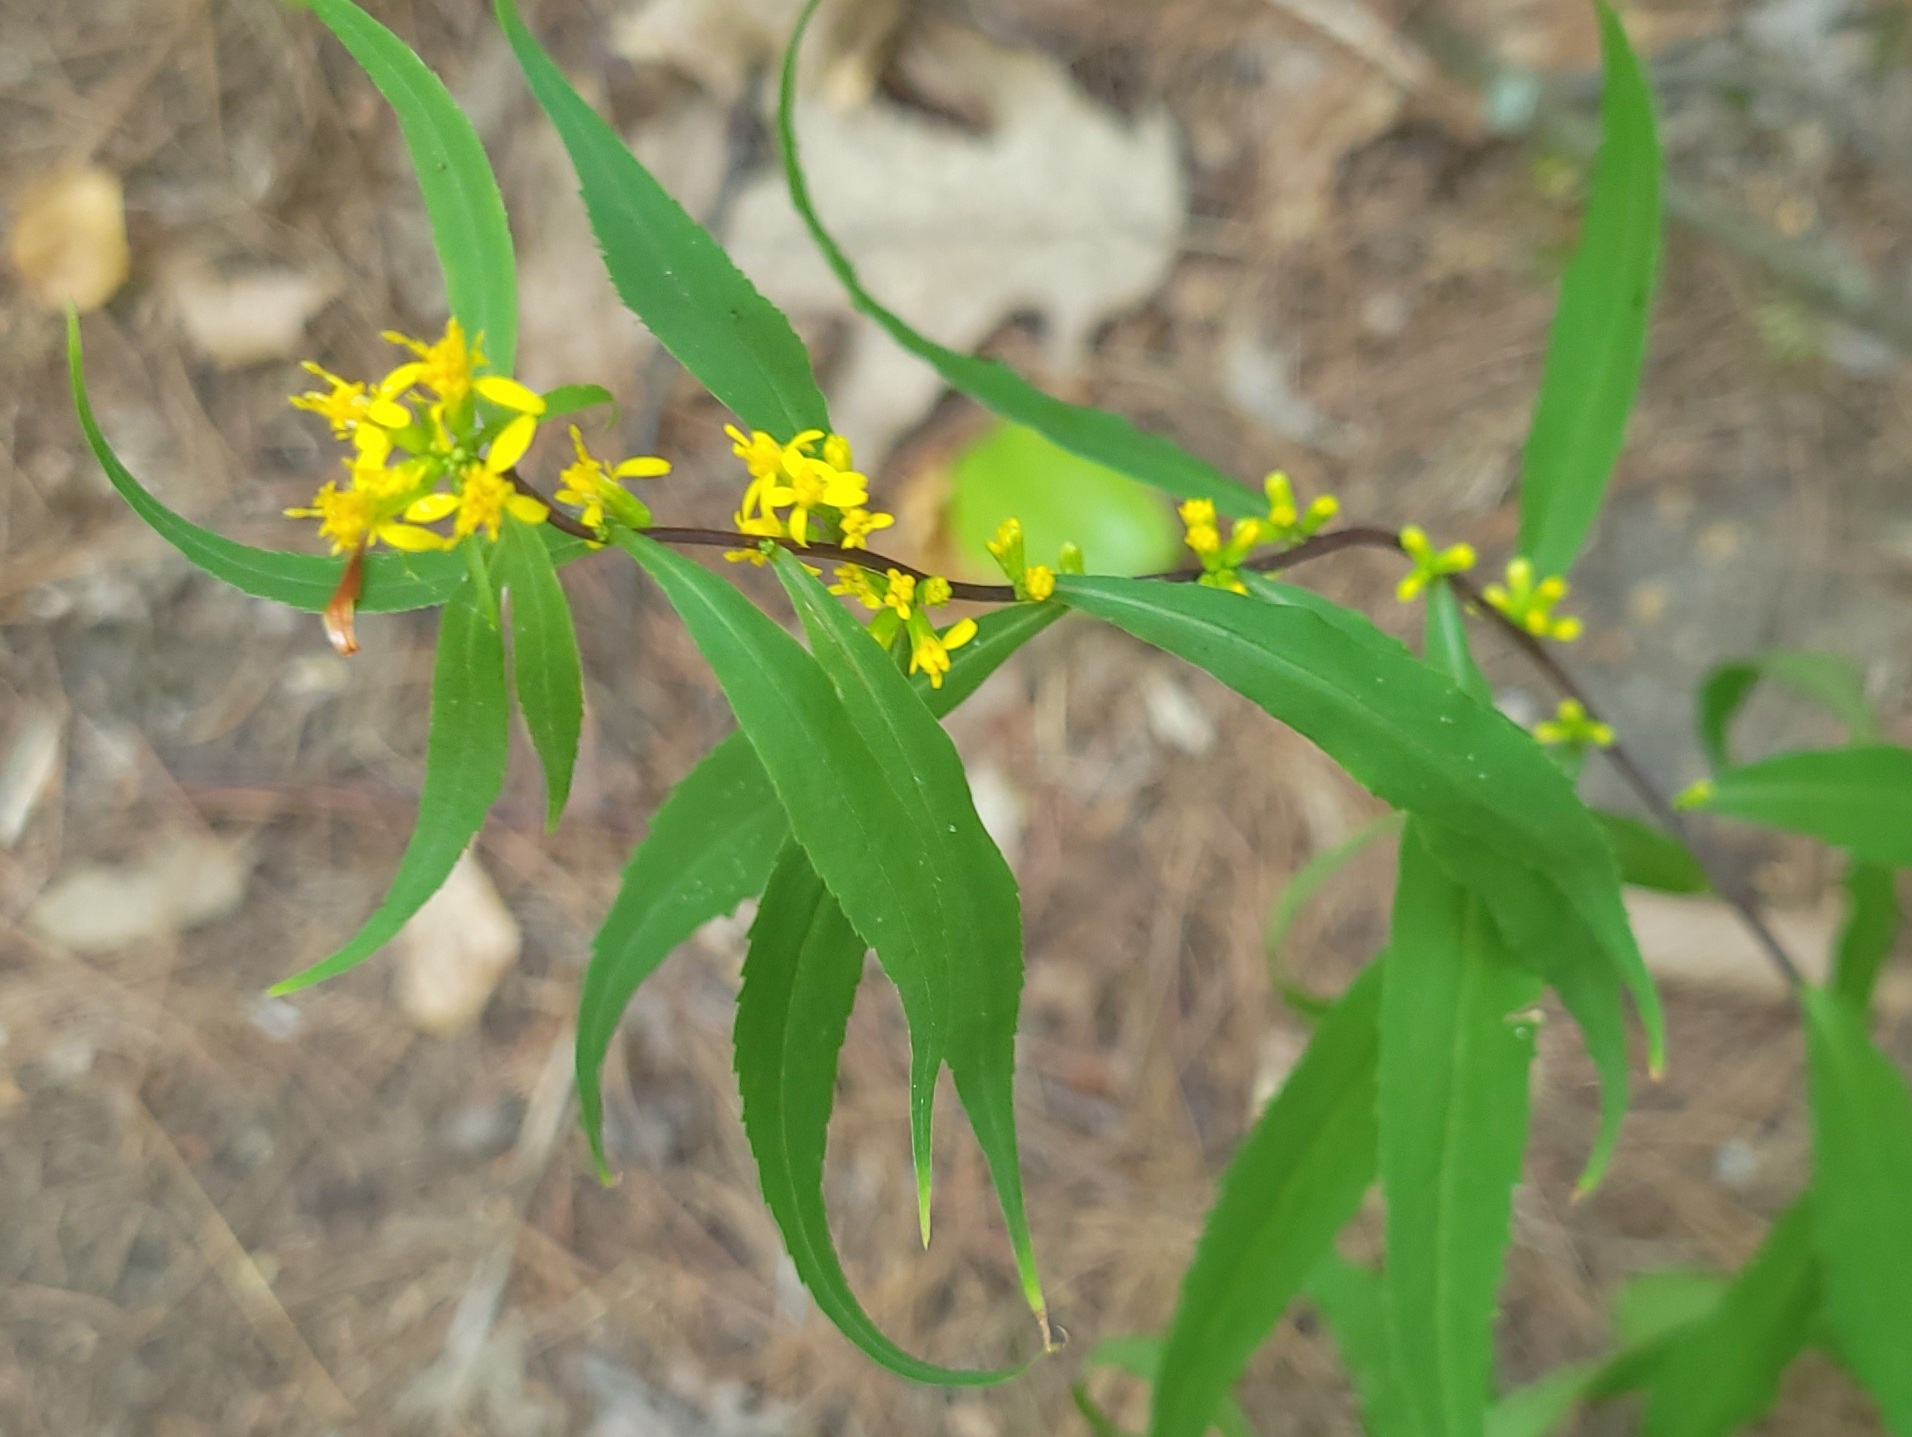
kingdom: Plantae
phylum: Tracheophyta
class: Magnoliopsida
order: Asterales
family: Asteraceae
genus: Solidago
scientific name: Solidago caesia
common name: Woodland goldenrod
